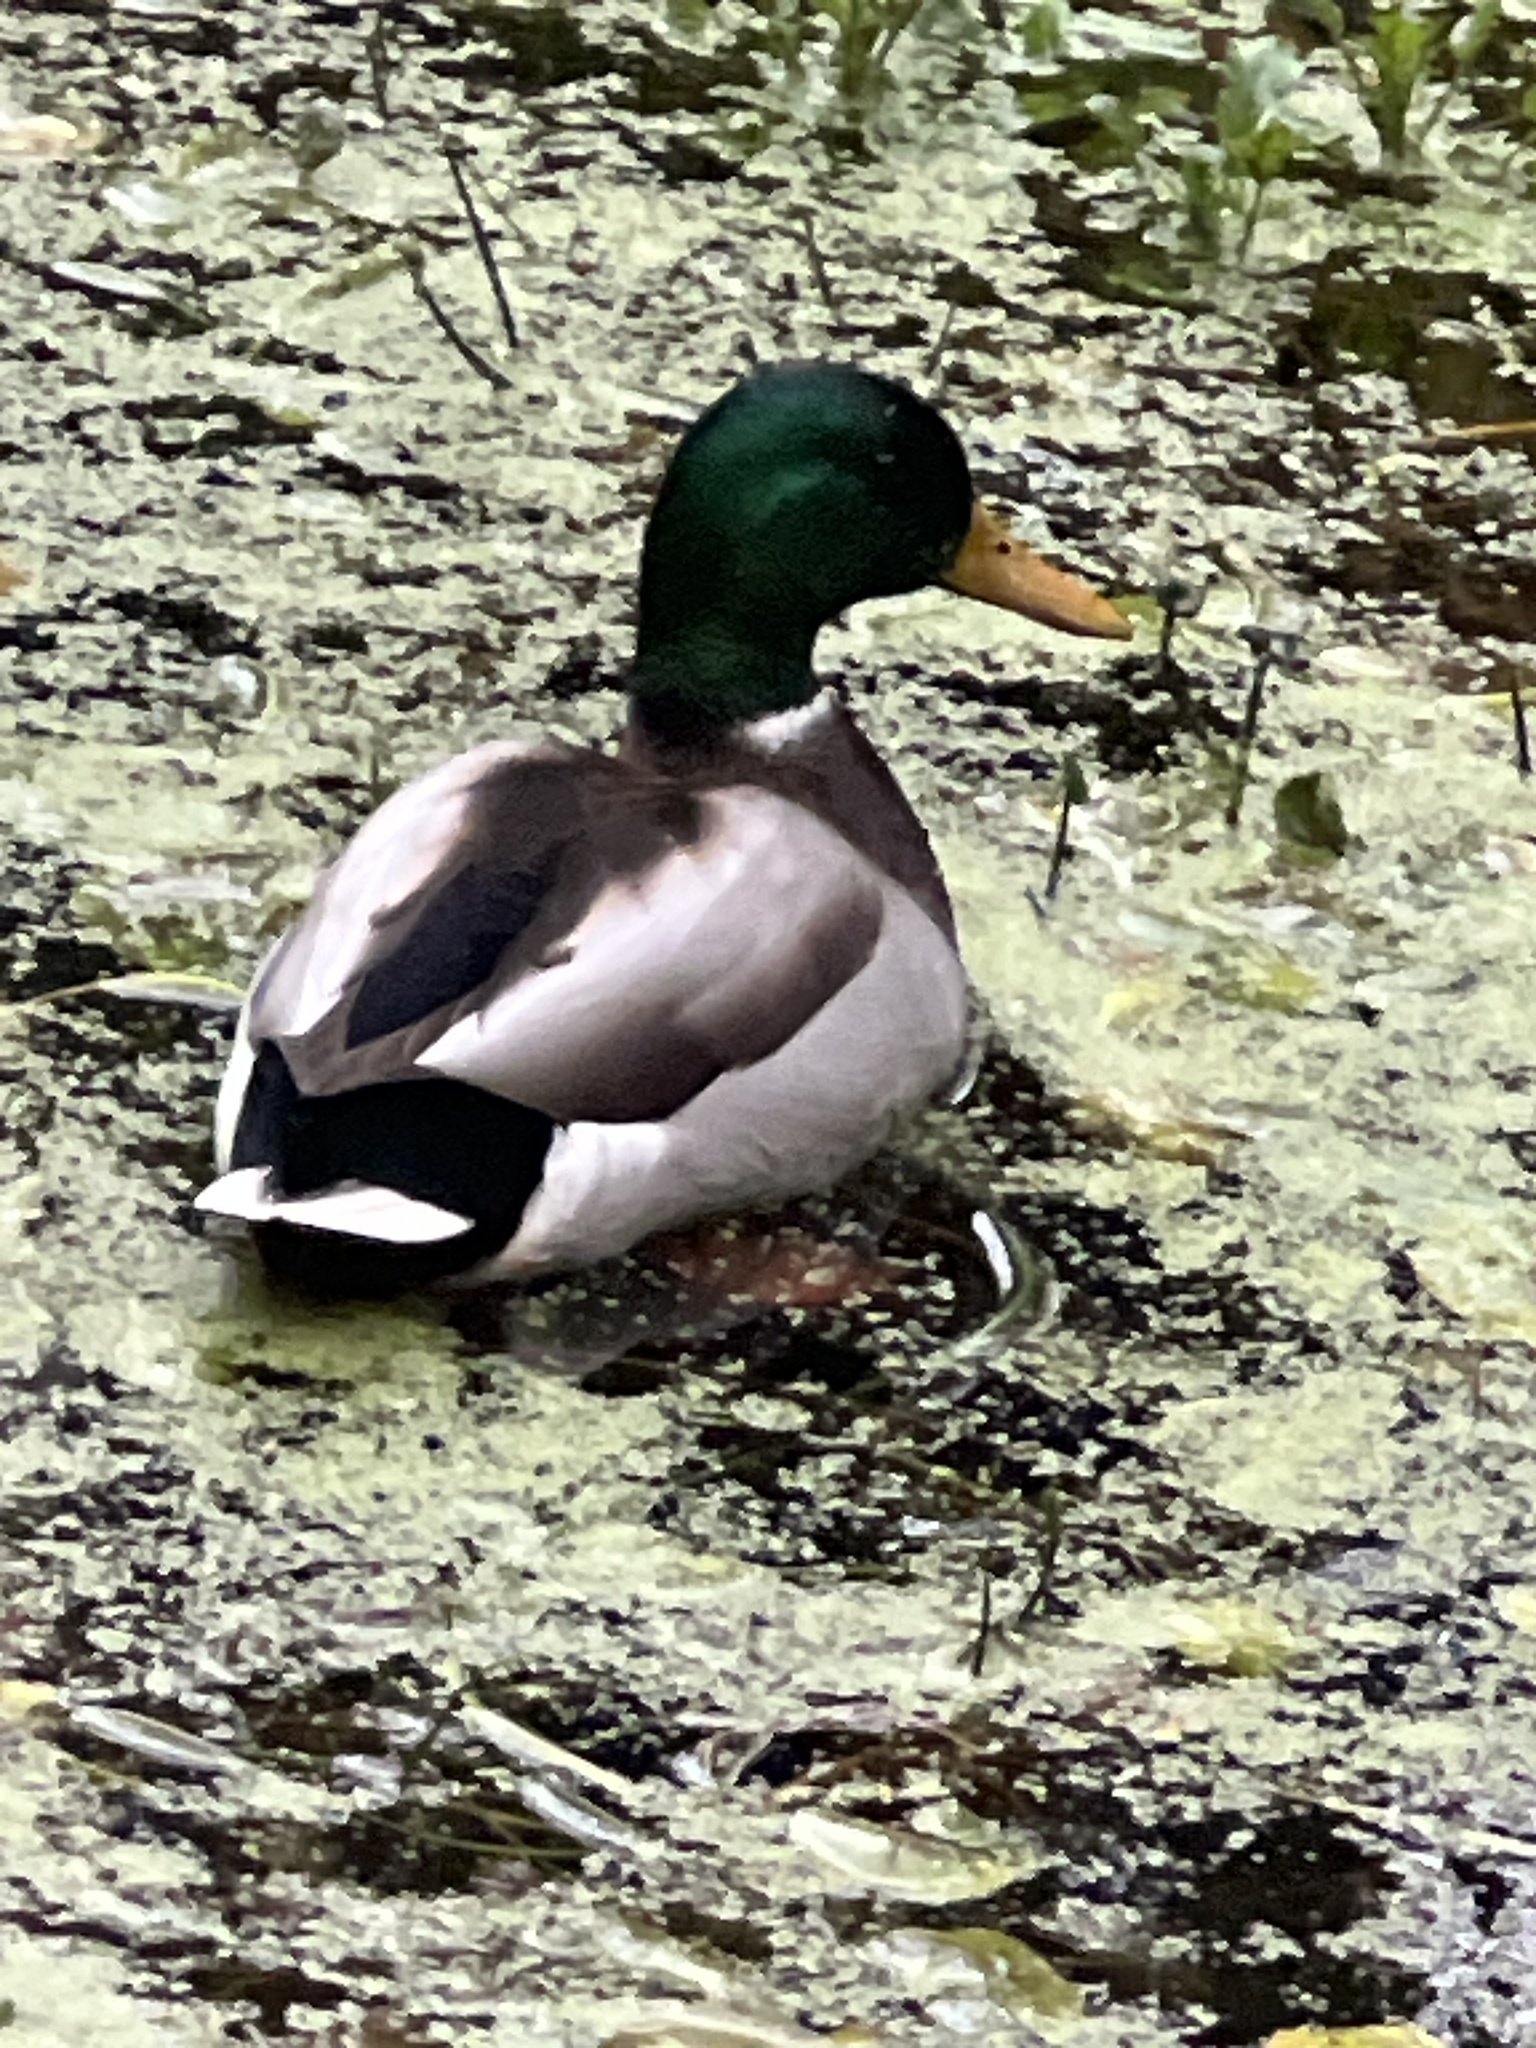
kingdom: Animalia
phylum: Chordata
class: Aves
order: Anseriformes
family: Anatidae
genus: Anas
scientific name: Anas platyrhynchos
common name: Mallard
